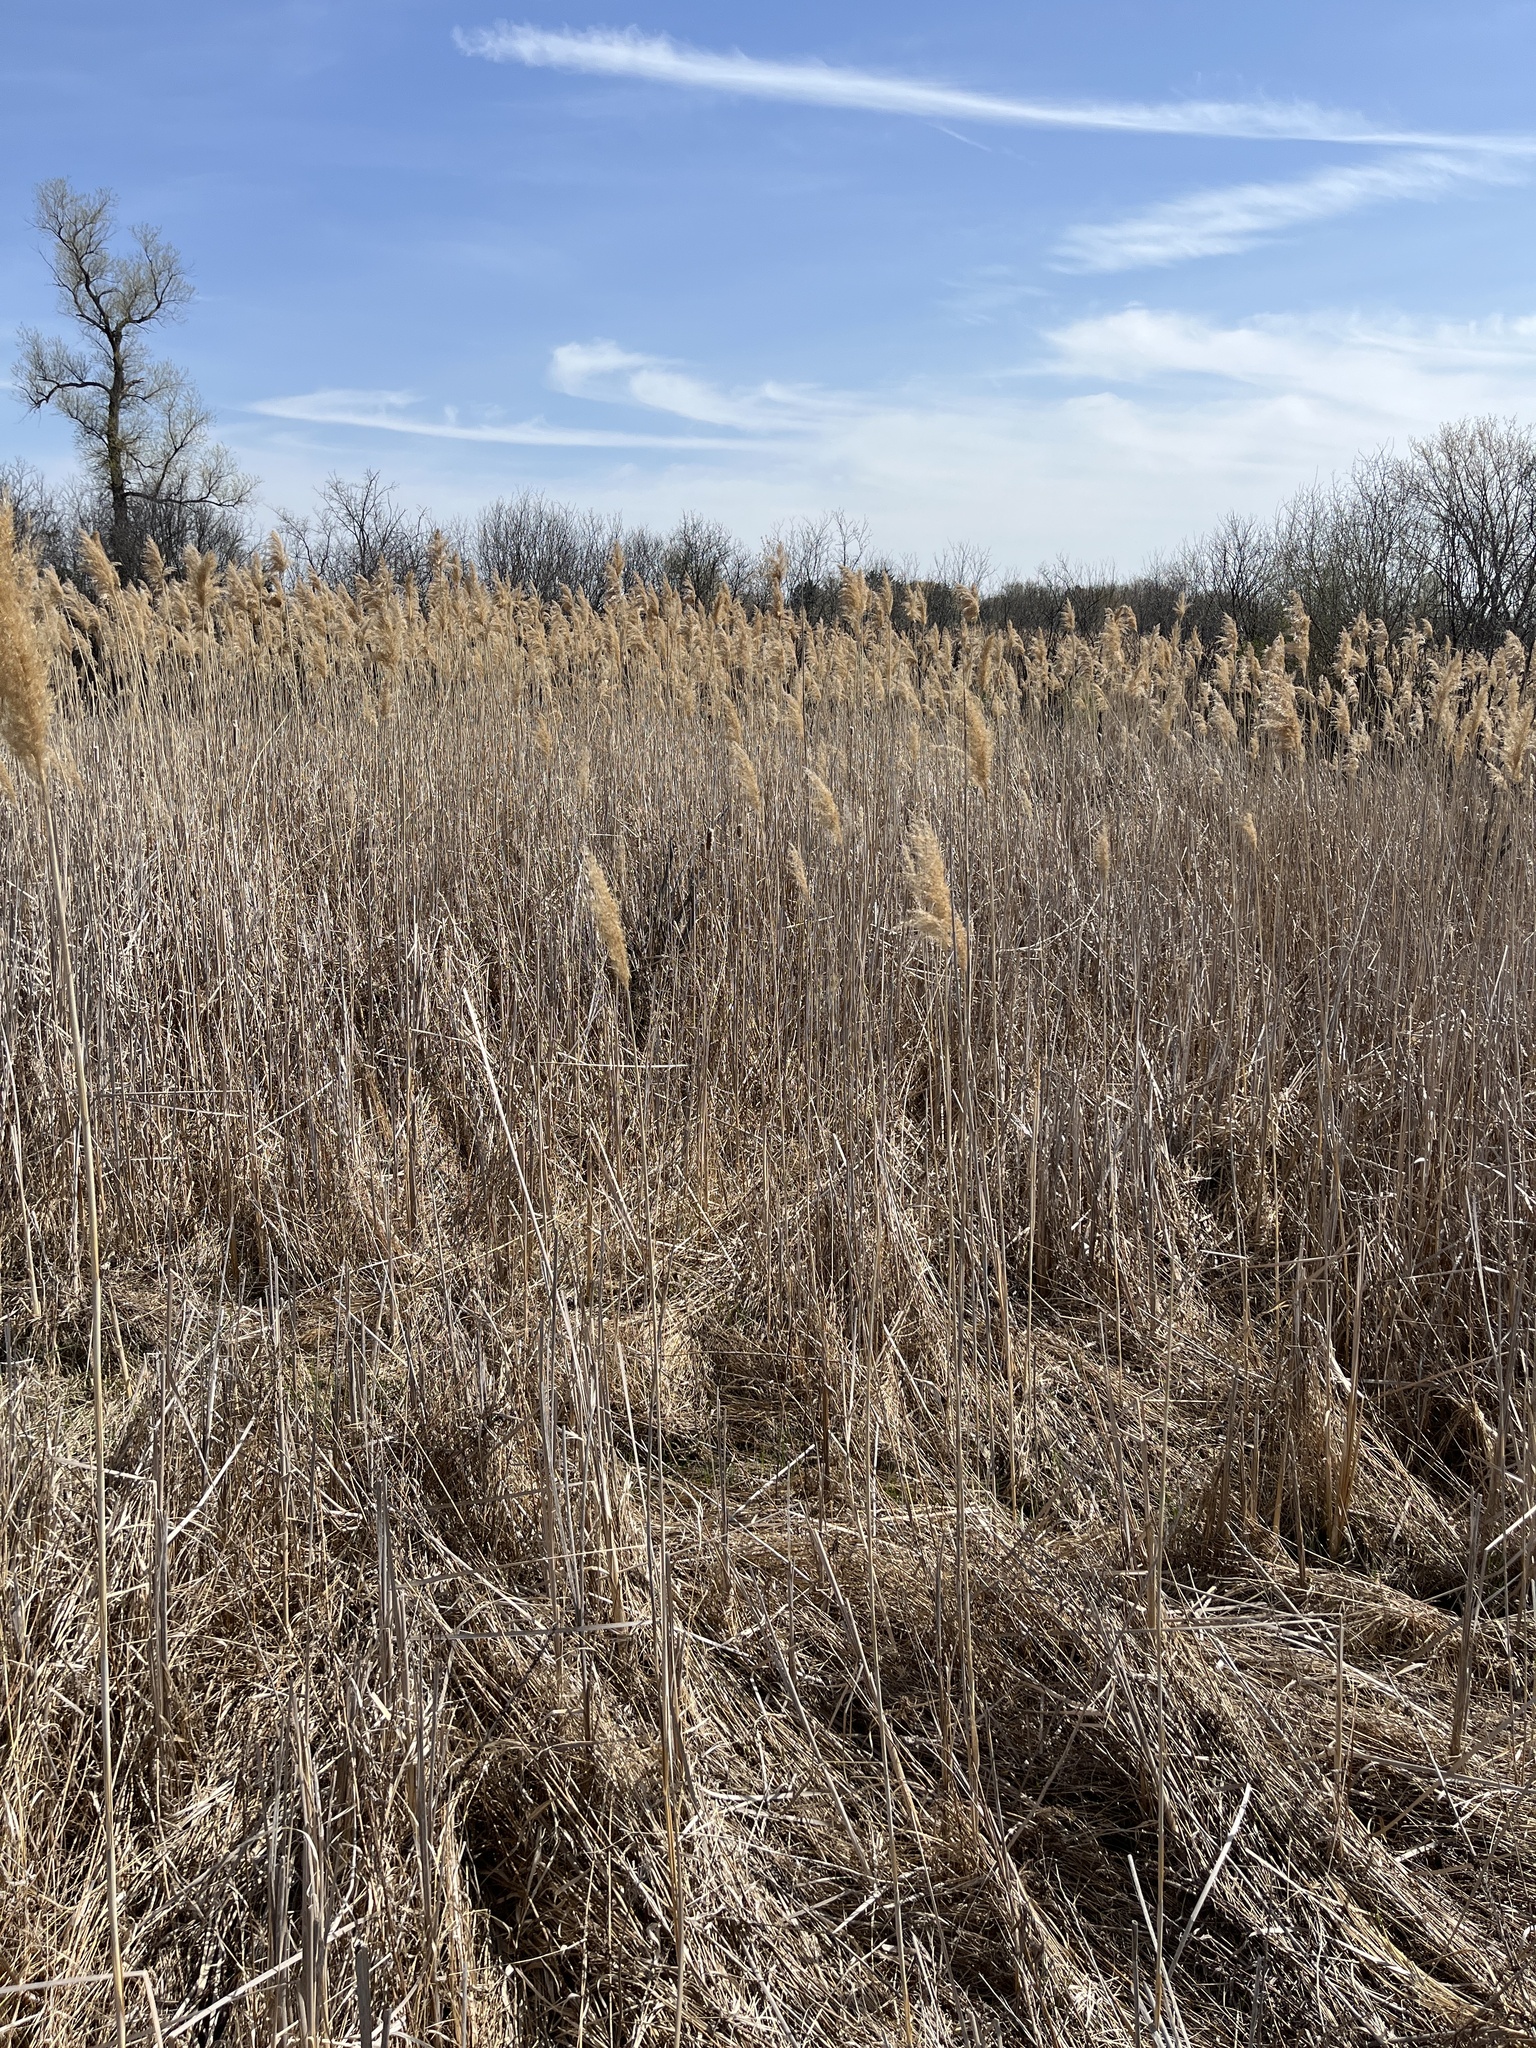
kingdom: Plantae
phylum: Tracheophyta
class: Liliopsida
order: Poales
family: Poaceae
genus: Phragmites
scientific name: Phragmites australis
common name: Common reed
